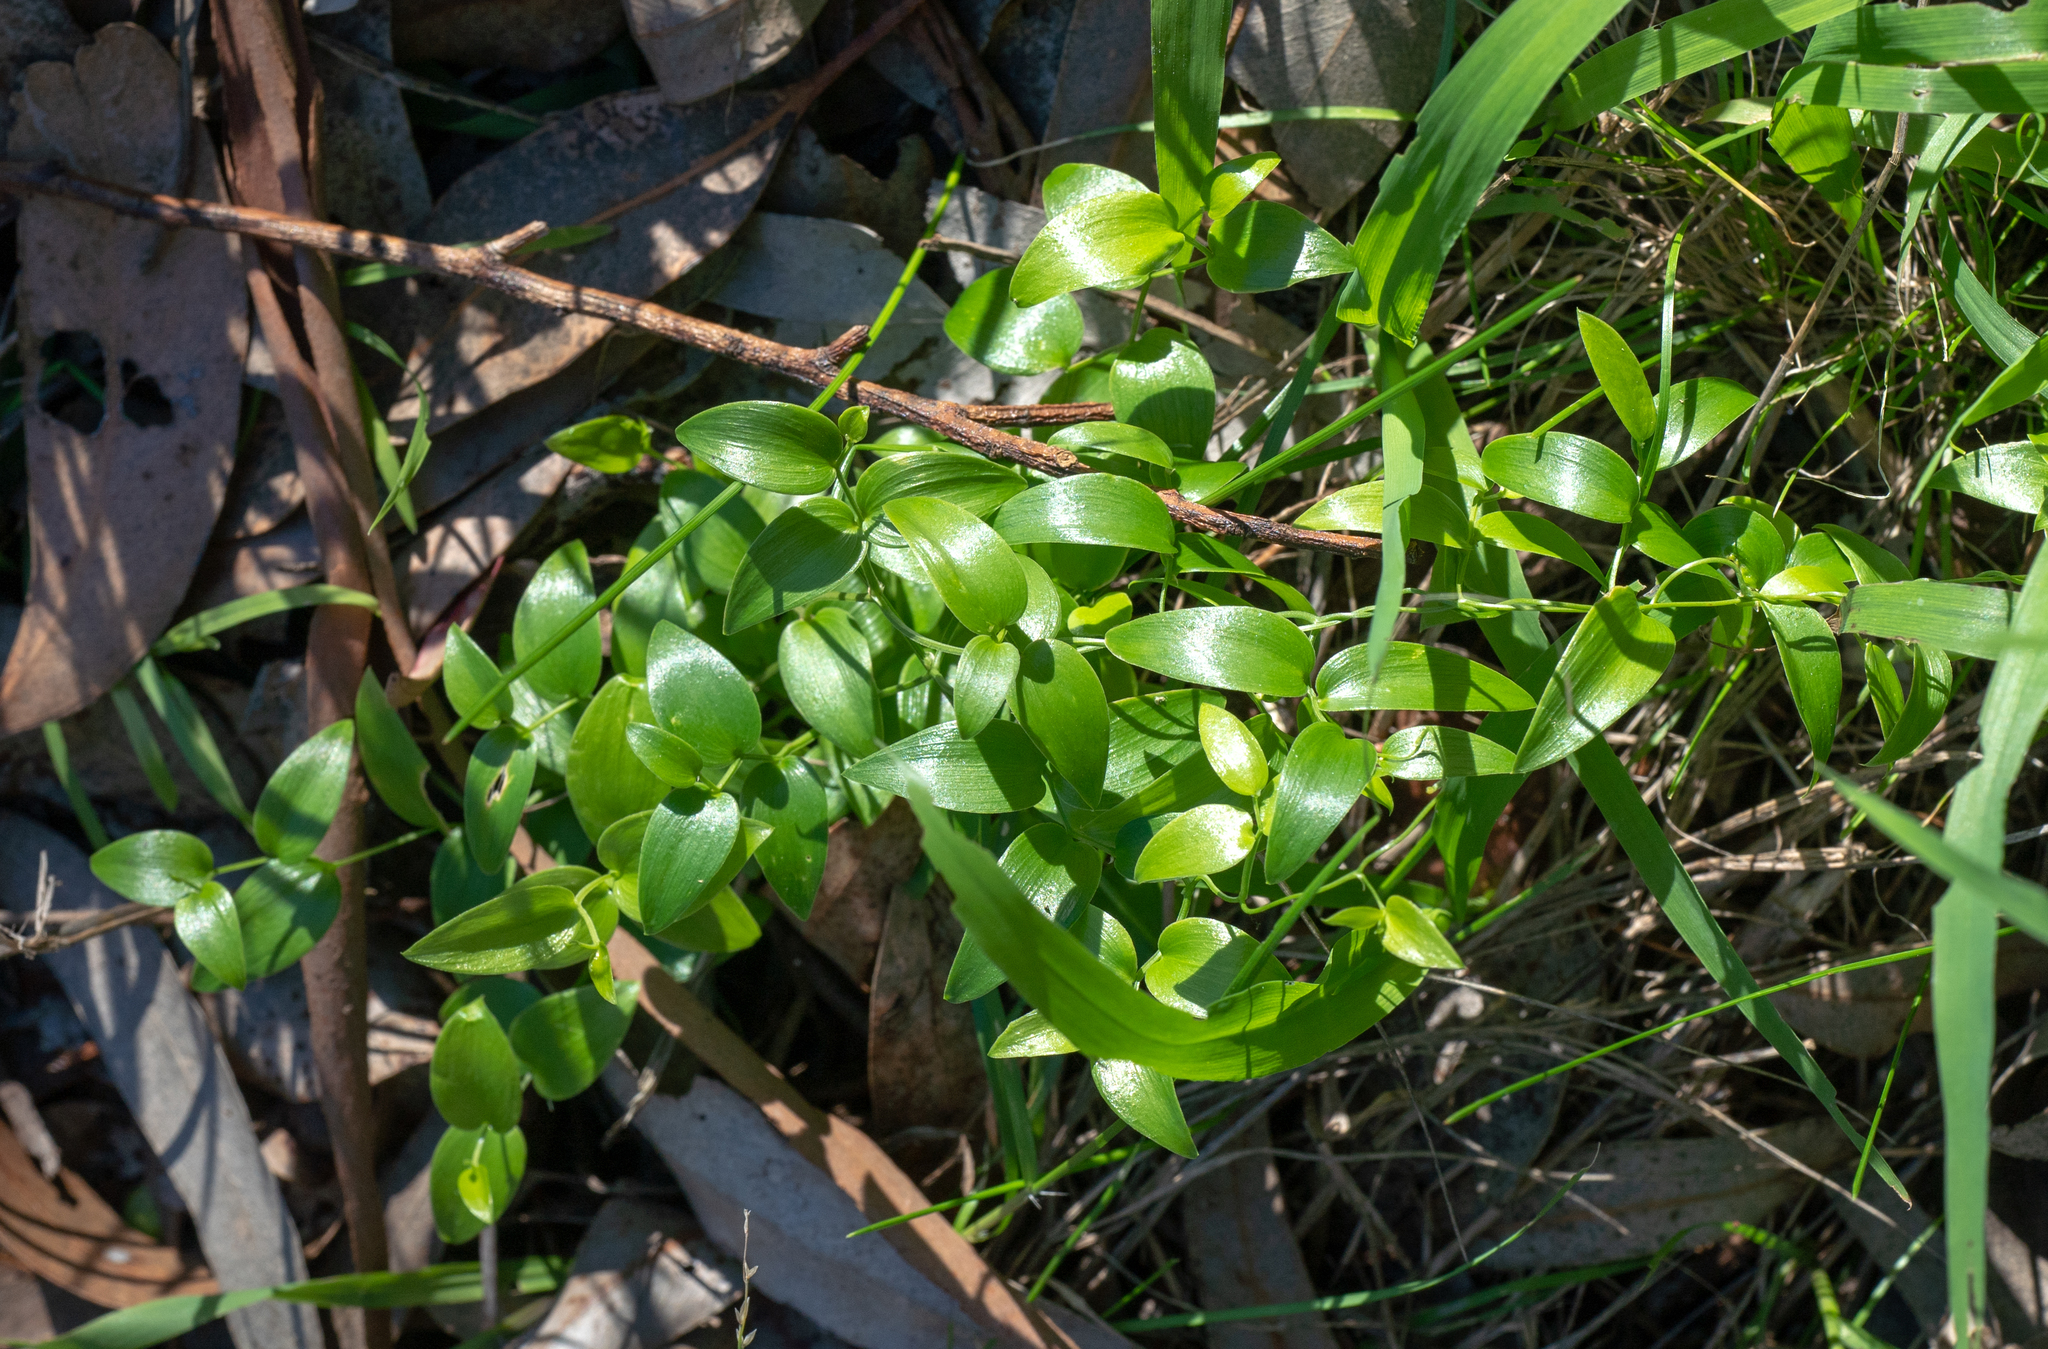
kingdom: Plantae
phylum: Tracheophyta
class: Liliopsida
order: Asparagales
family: Asparagaceae
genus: Asparagus
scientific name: Asparagus asparagoides
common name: African asparagus fern
